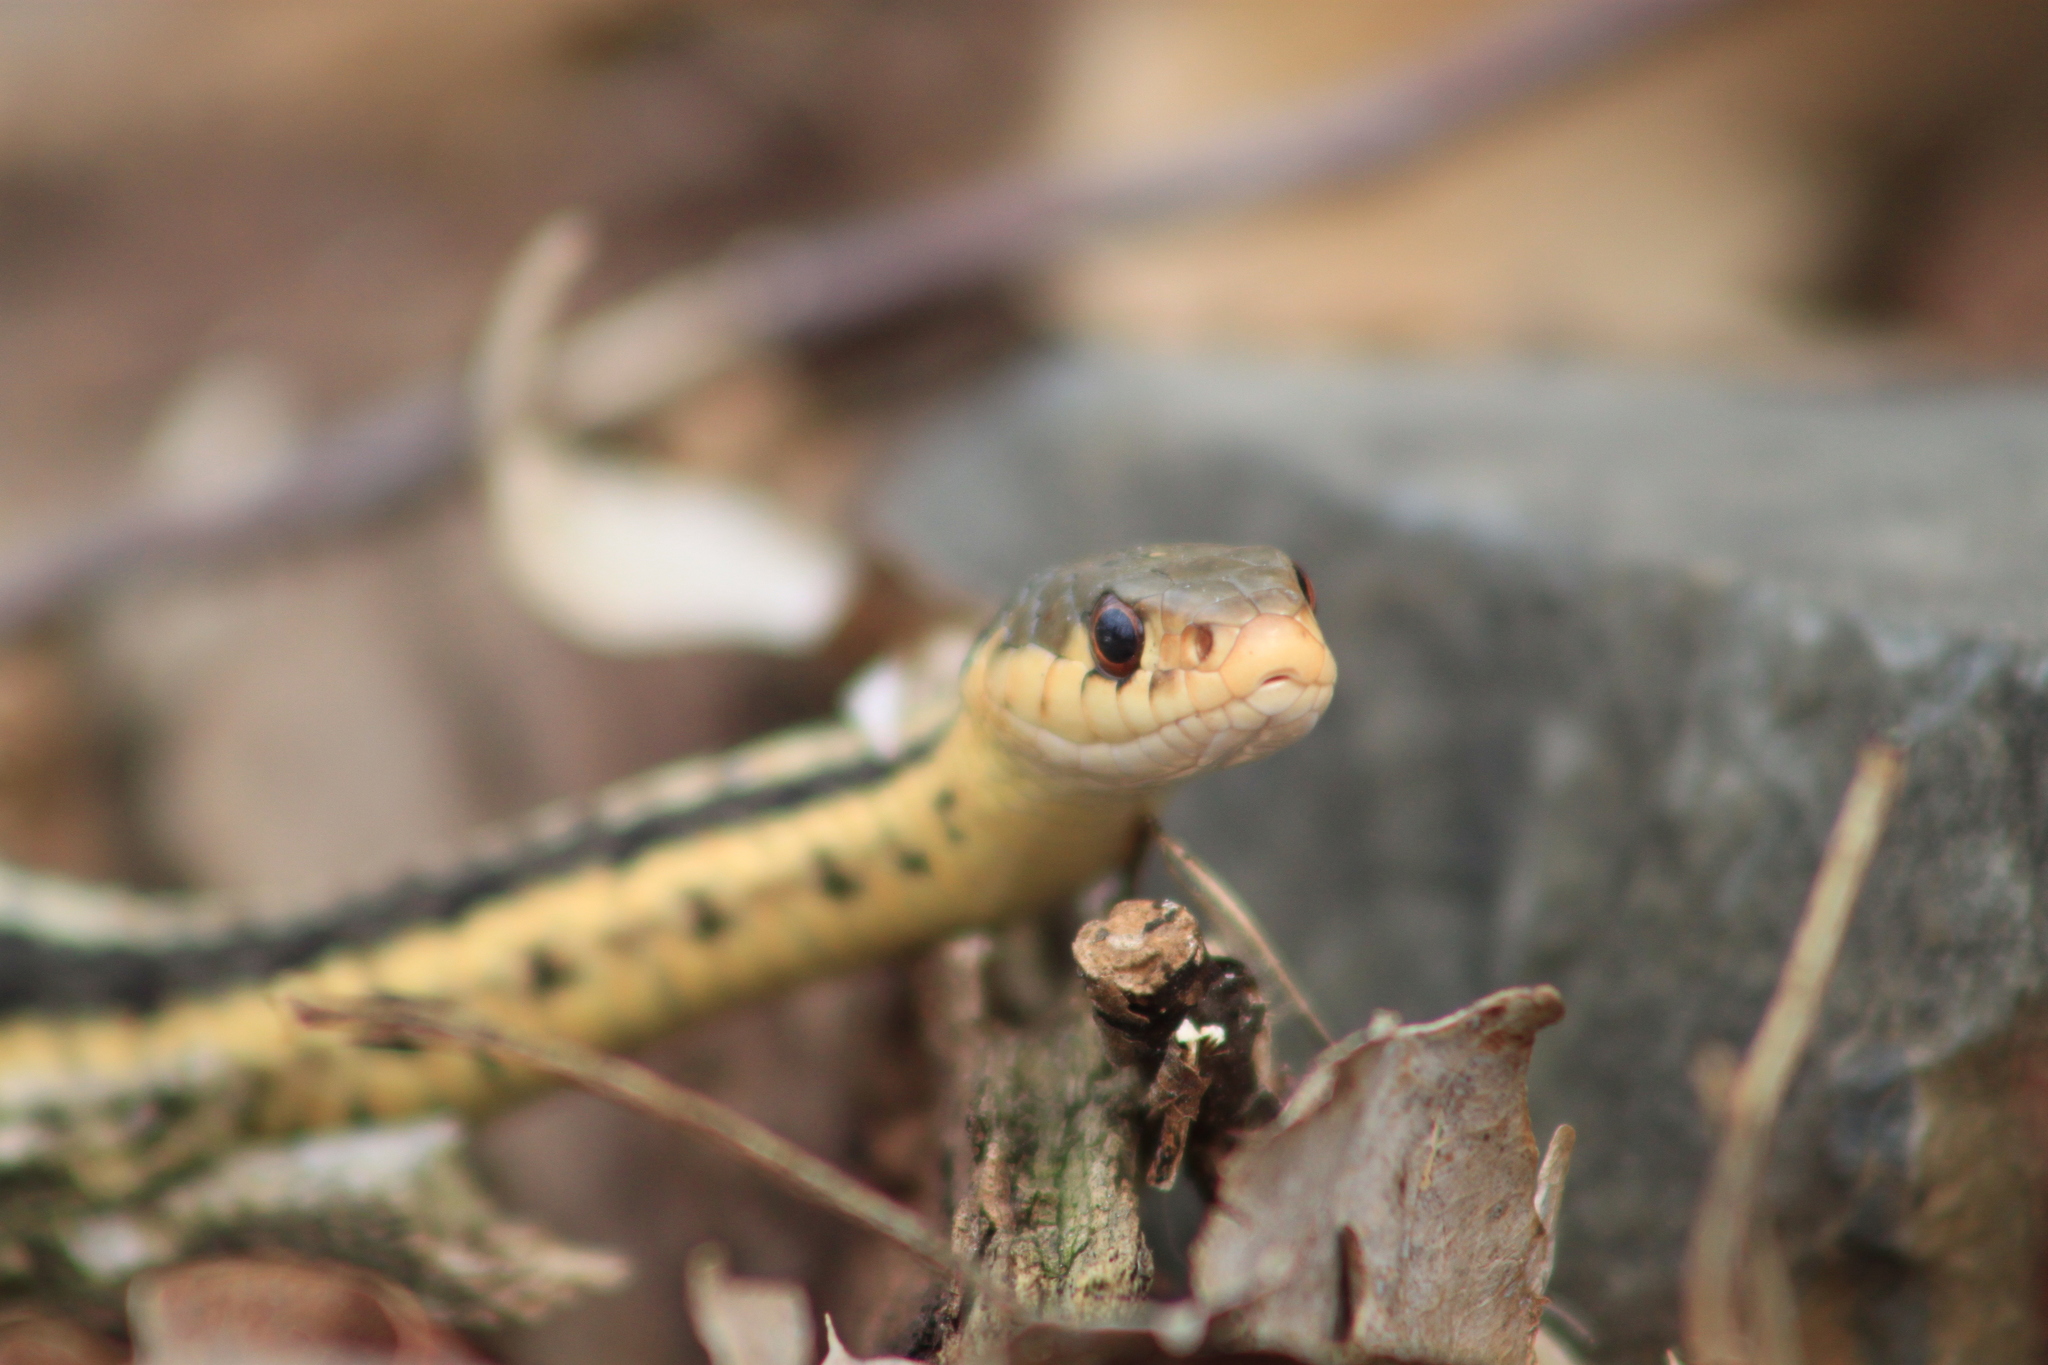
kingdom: Animalia
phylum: Chordata
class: Squamata
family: Colubridae
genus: Thamnophis
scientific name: Thamnophis sirtalis
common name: Common garter snake
